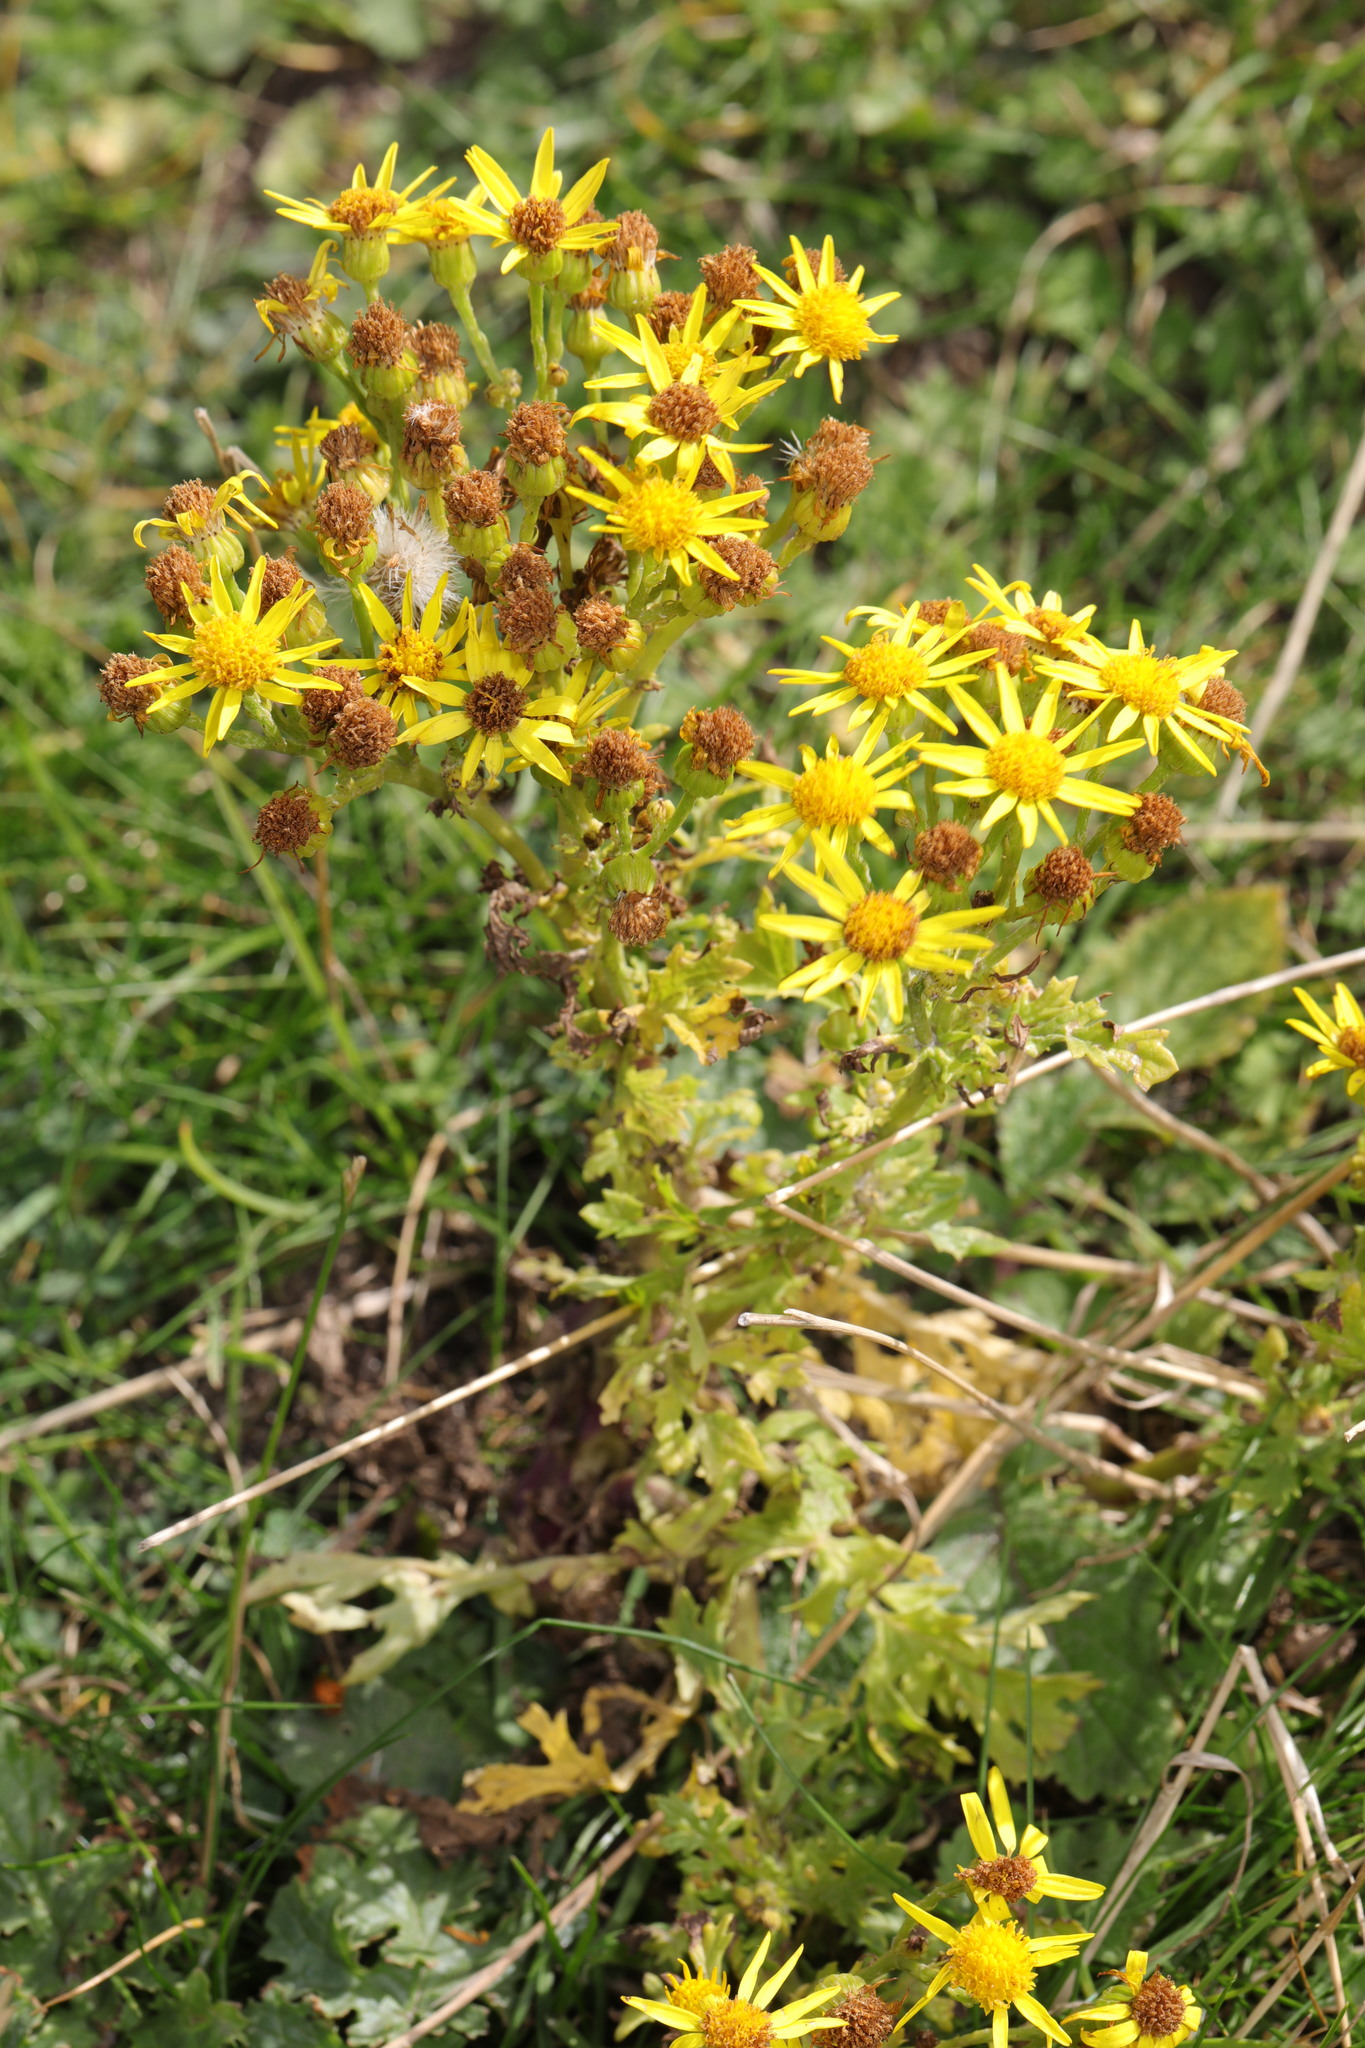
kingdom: Plantae
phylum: Tracheophyta
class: Magnoliopsida
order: Asterales
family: Asteraceae
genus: Jacobaea
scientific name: Jacobaea vulgaris
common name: Stinking willie
